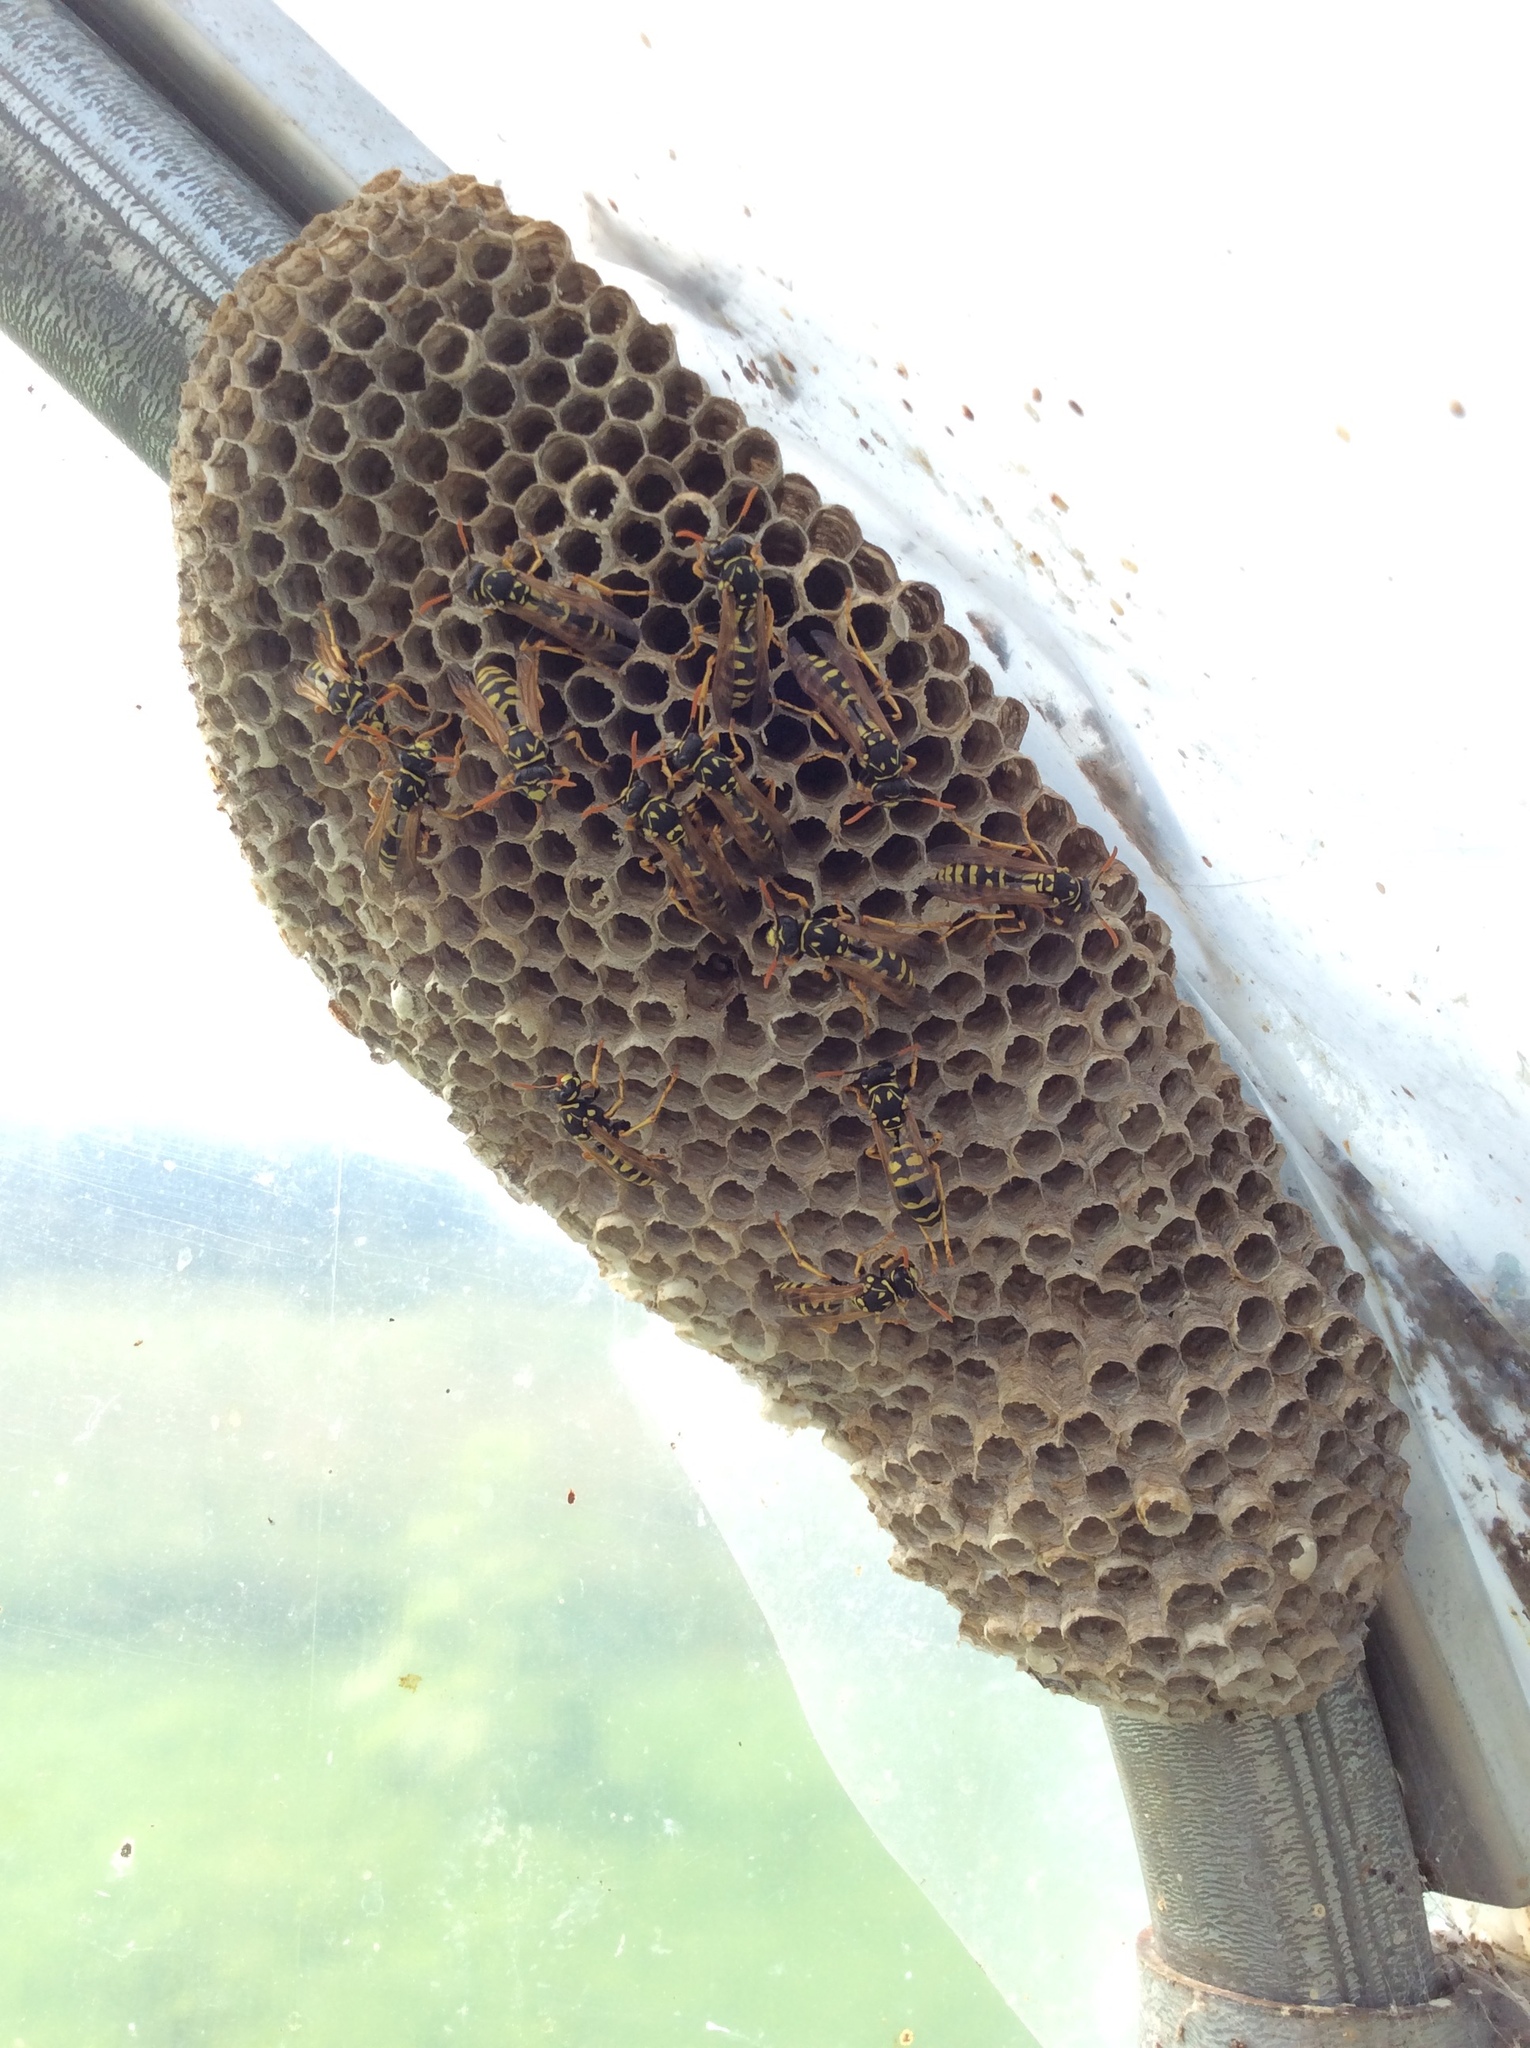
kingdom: Animalia
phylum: Arthropoda
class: Insecta
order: Hymenoptera
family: Eumenidae
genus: Polistes
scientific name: Polistes dominula
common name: Paper wasp
